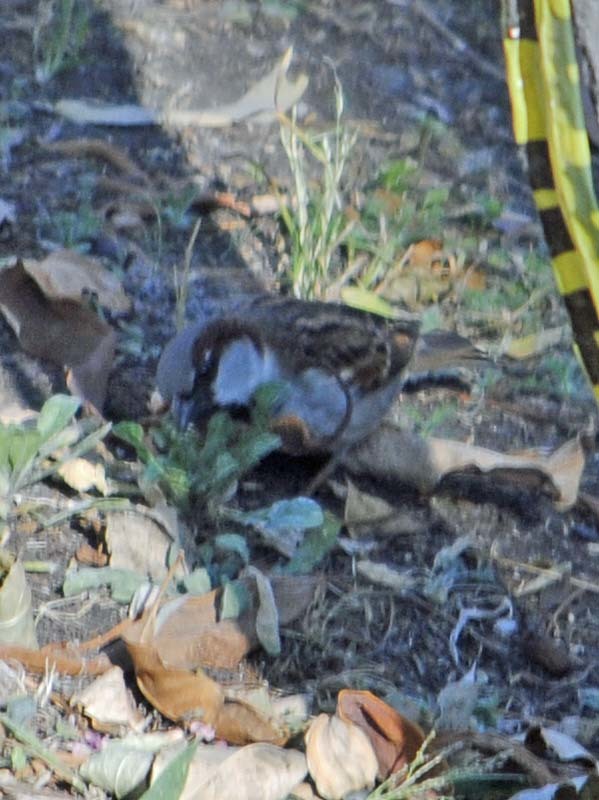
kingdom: Animalia
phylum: Chordata
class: Aves
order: Passeriformes
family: Passeridae
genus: Passer
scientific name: Passer domesticus
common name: House sparrow
